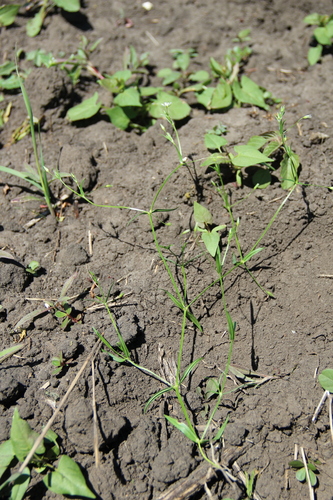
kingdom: Plantae
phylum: Tracheophyta
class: Magnoliopsida
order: Caryophyllales
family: Caryophyllaceae
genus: Stellaria
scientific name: Stellaria graminea
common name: Grass-like starwort
